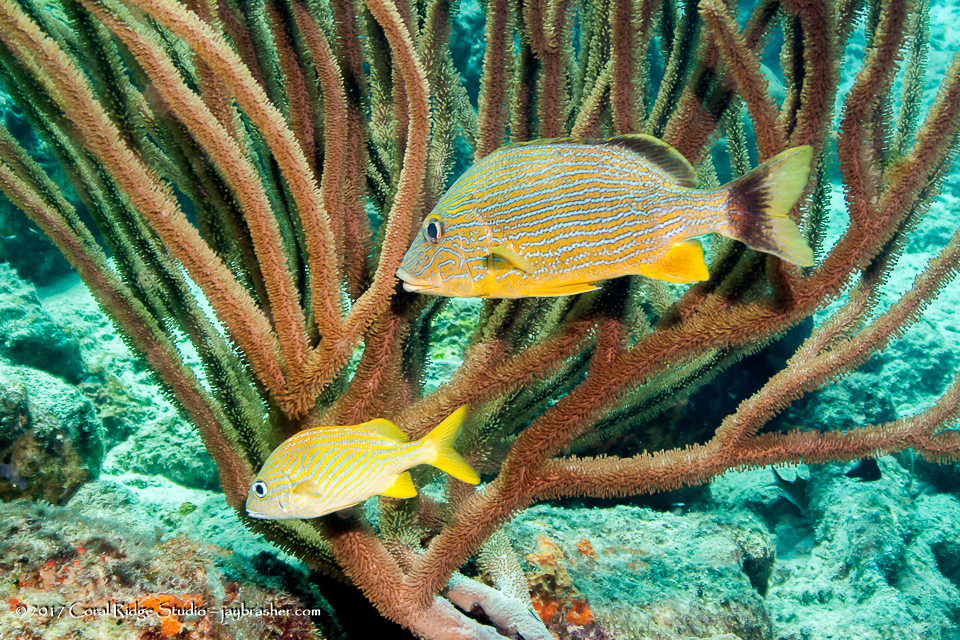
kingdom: Animalia
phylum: Chordata
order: Perciformes
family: Haemulidae
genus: Haemulon
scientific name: Haemulon sciurus
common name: Bluestriped grunt
